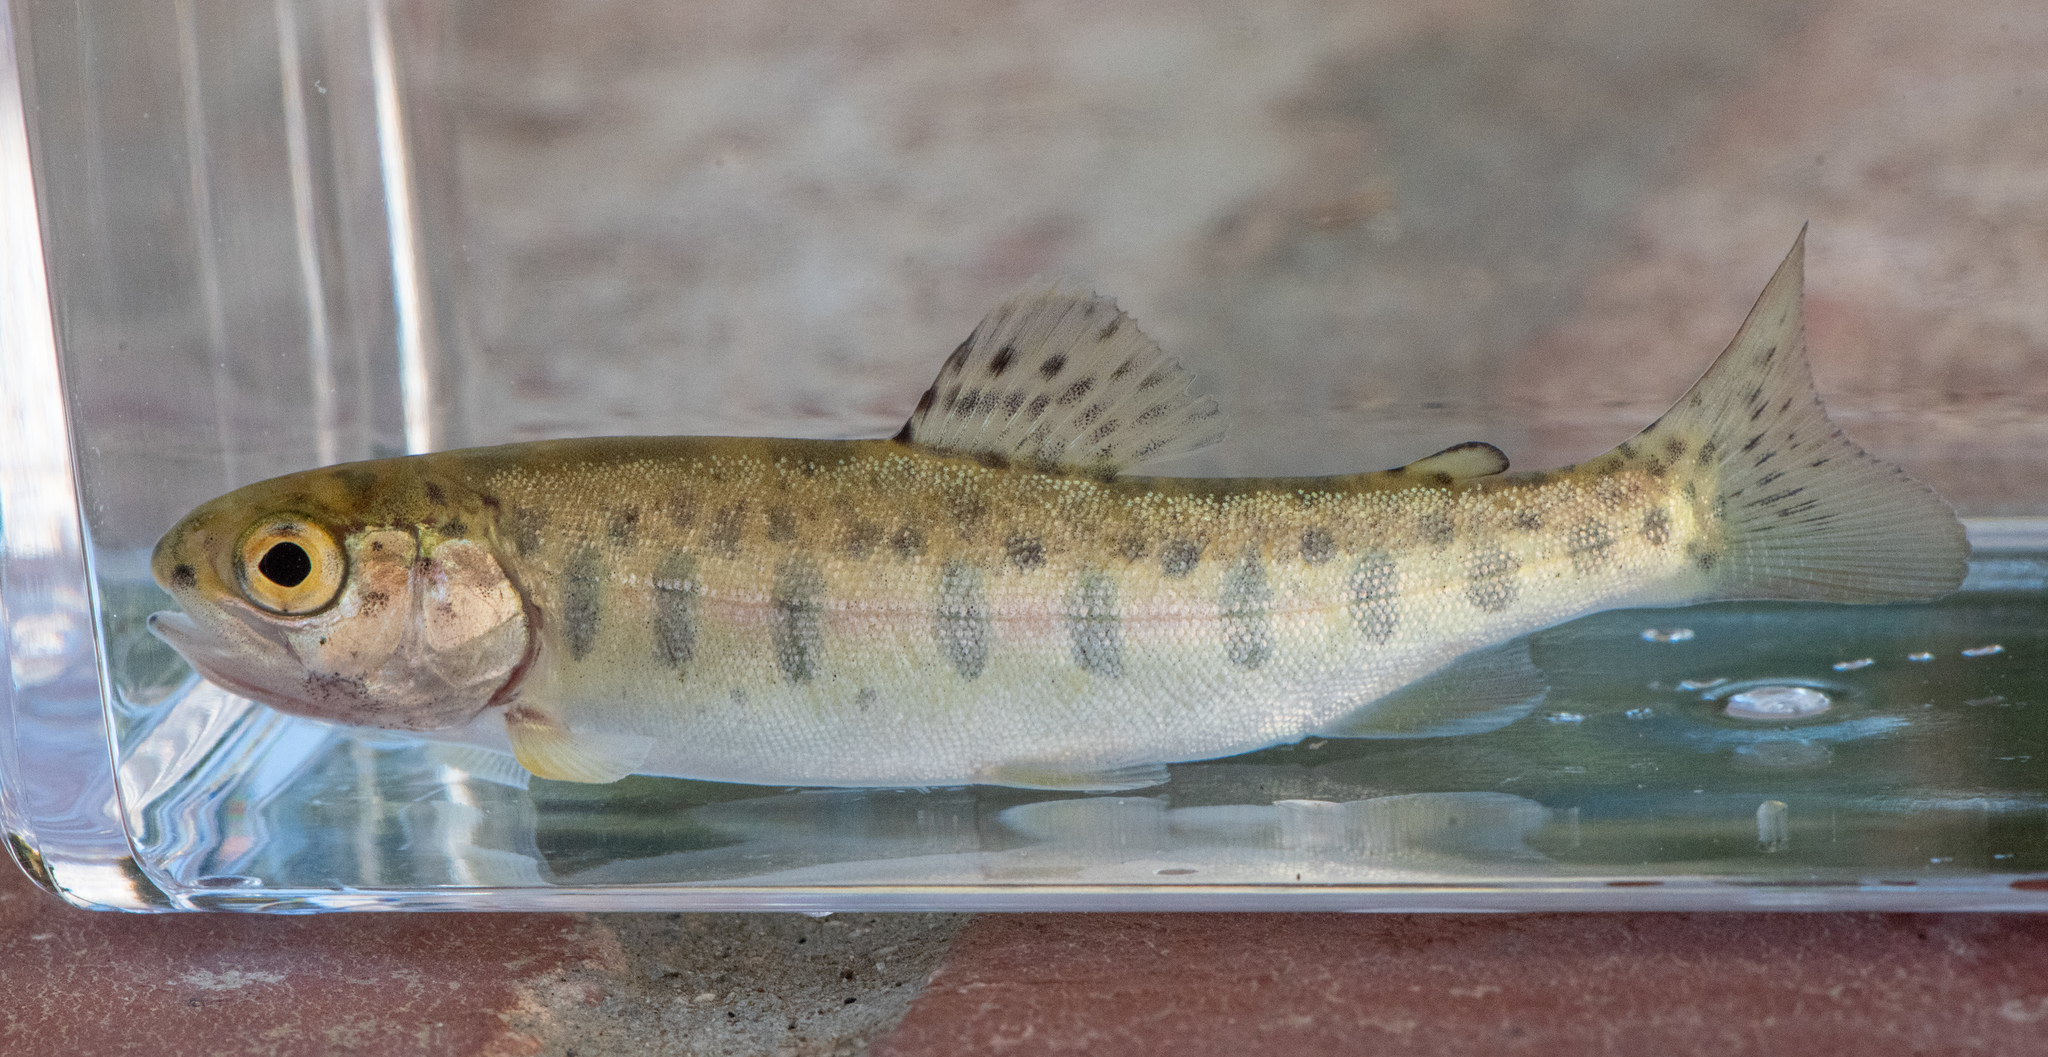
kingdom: Animalia
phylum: Chordata
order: Salmoniformes
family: Salmonidae
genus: Oncorhynchus
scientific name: Oncorhynchus mykiss
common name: Rainbow trout
